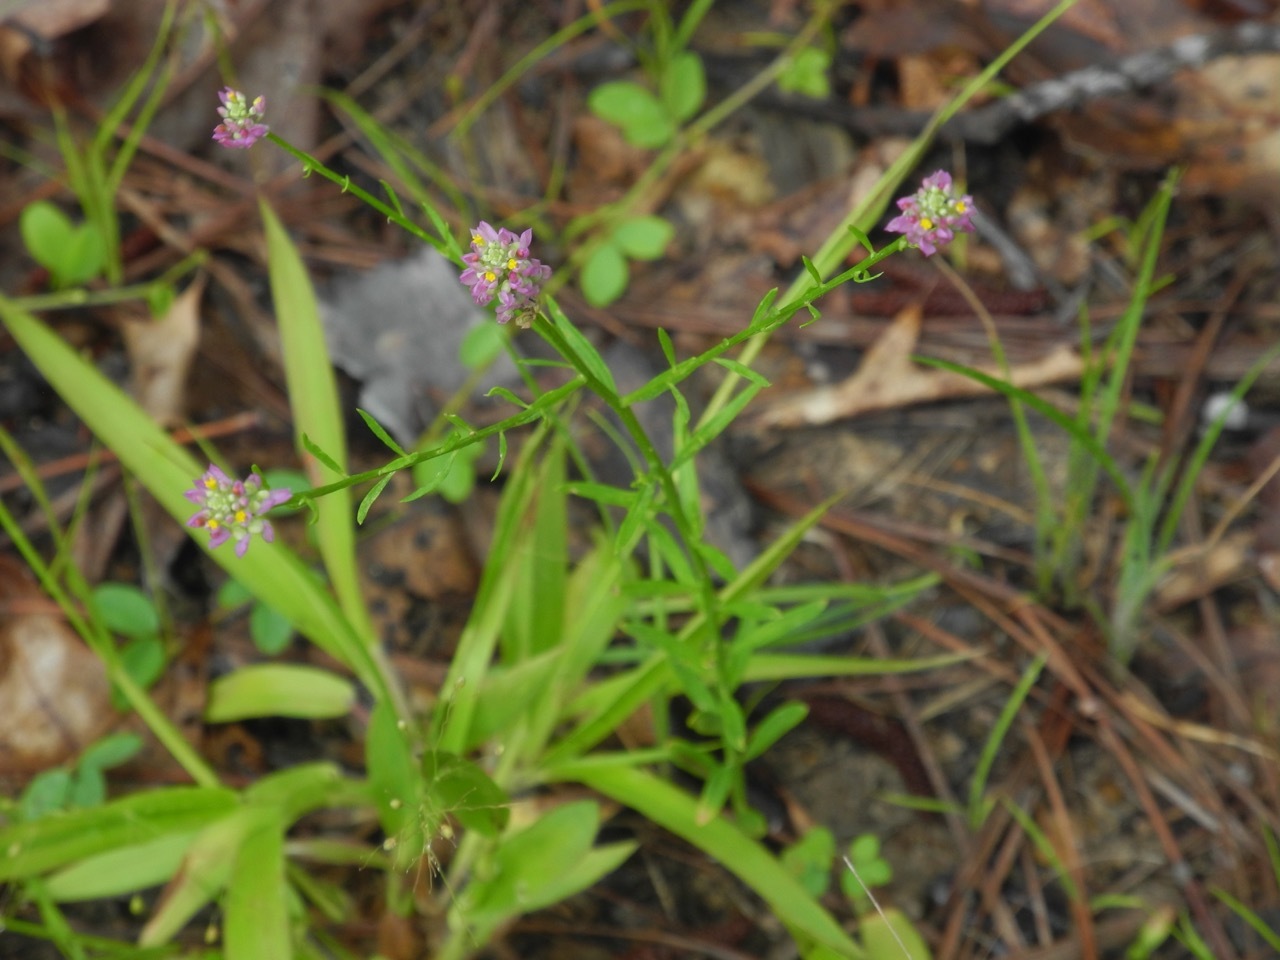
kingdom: Plantae
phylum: Tracheophyta
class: Magnoliopsida
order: Fabales
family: Polygalaceae
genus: Polygala
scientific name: Polygala curtissii
